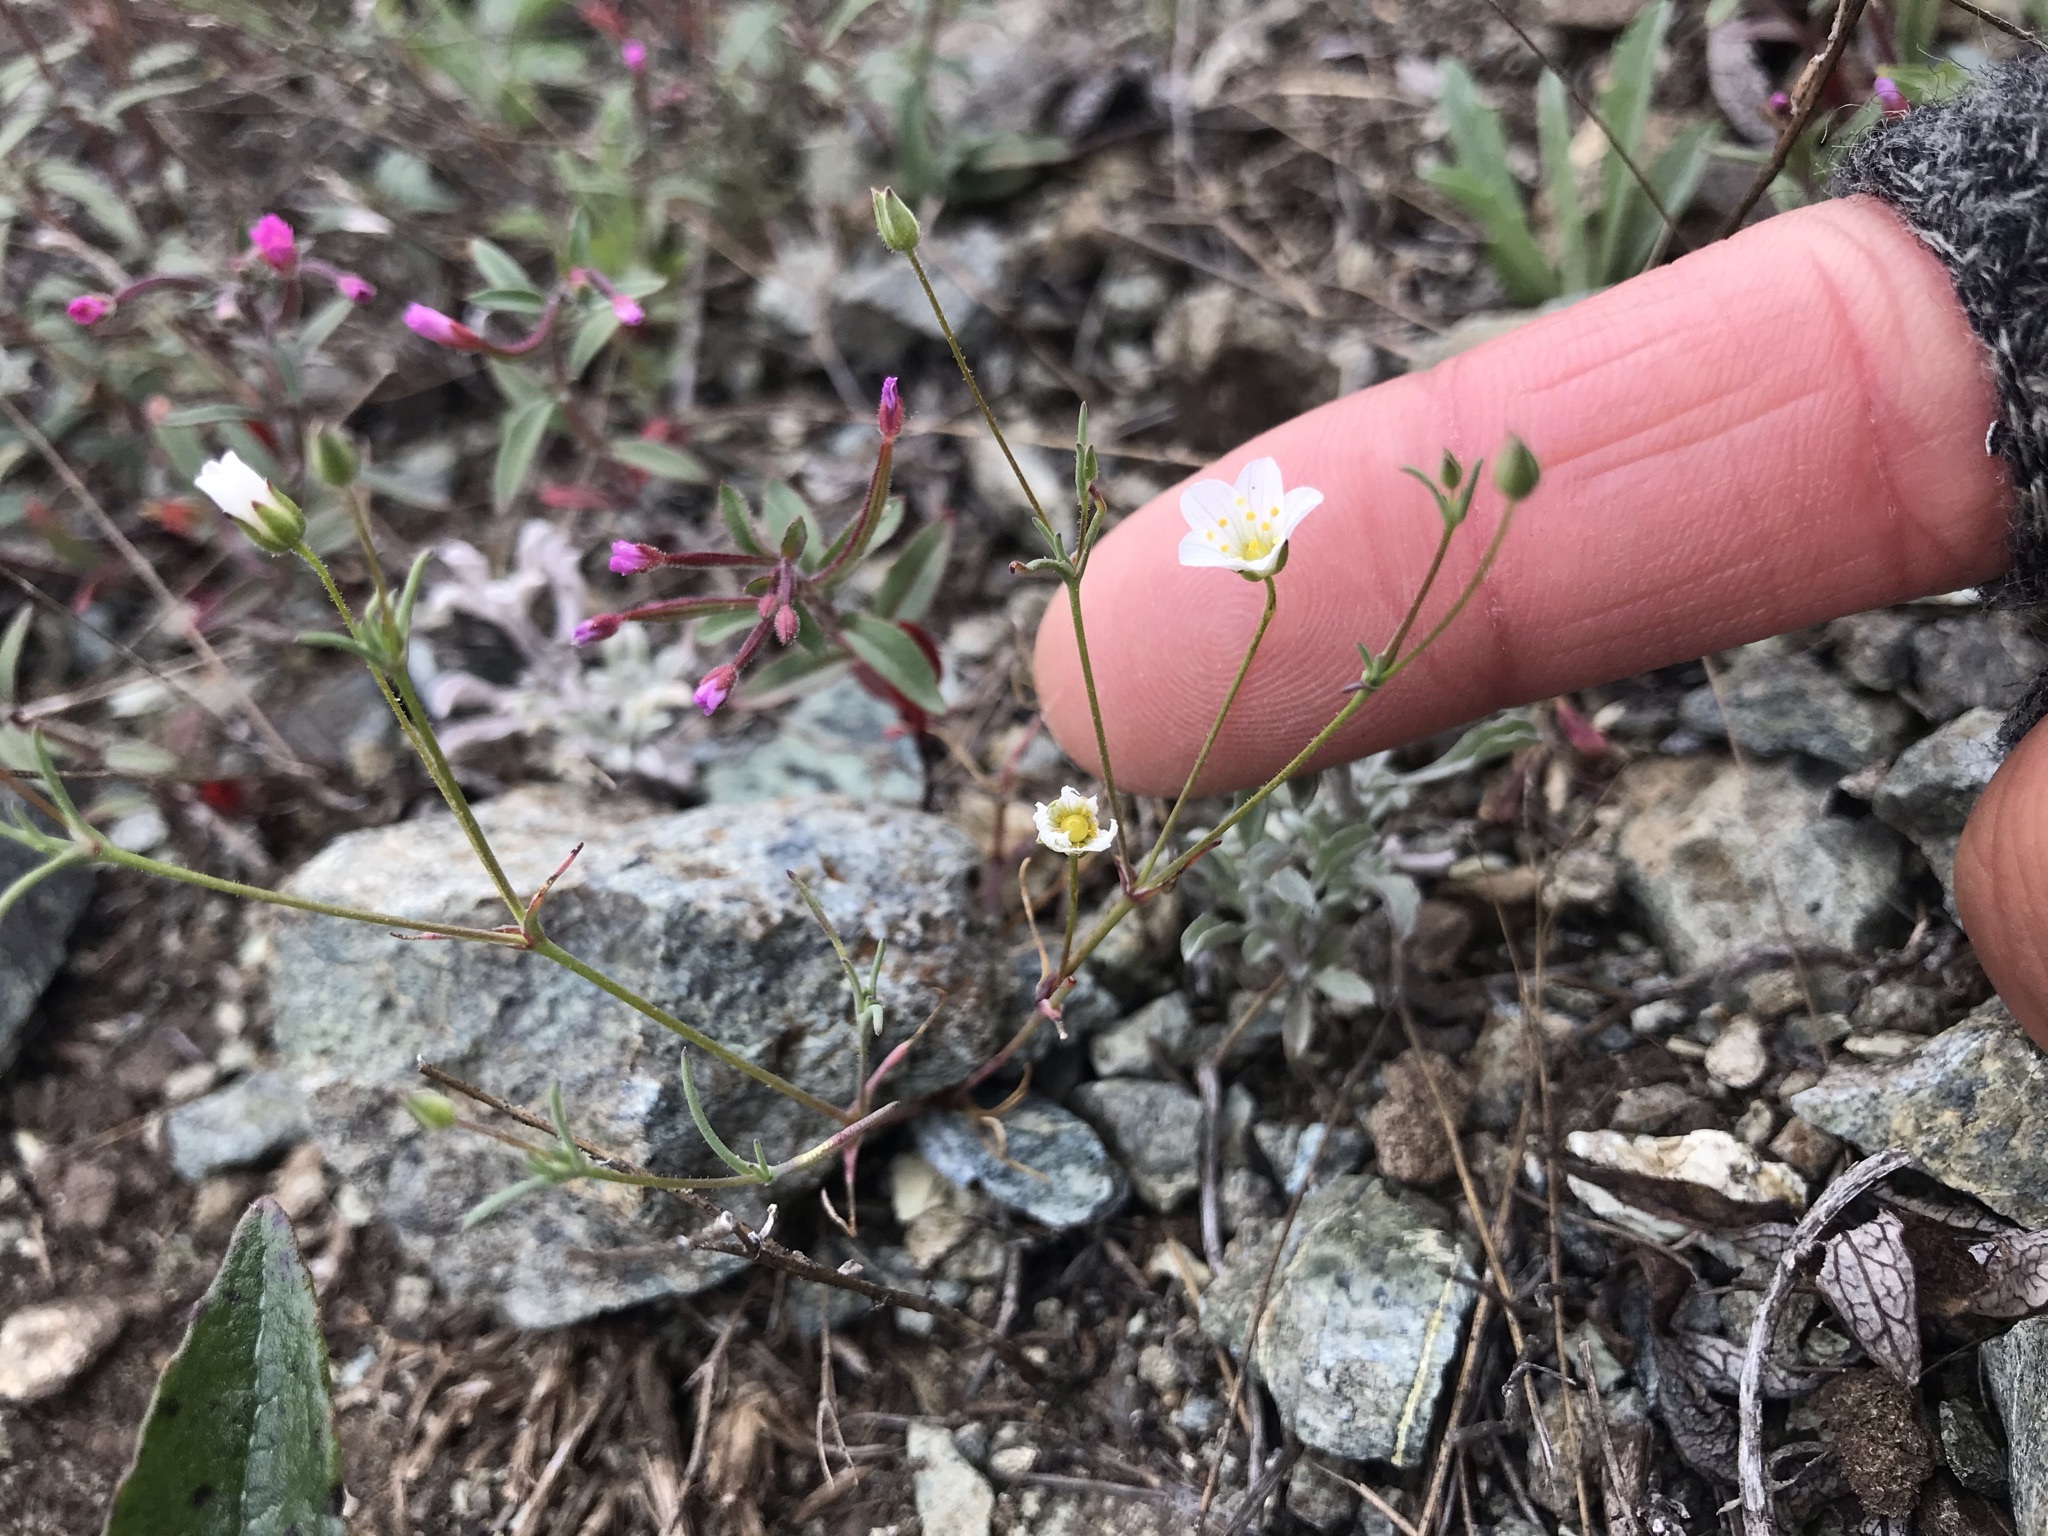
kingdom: Plantae
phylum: Tracheophyta
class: Magnoliopsida
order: Caryophyllales
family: Caryophyllaceae
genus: Sabulina
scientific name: Sabulina douglasii
